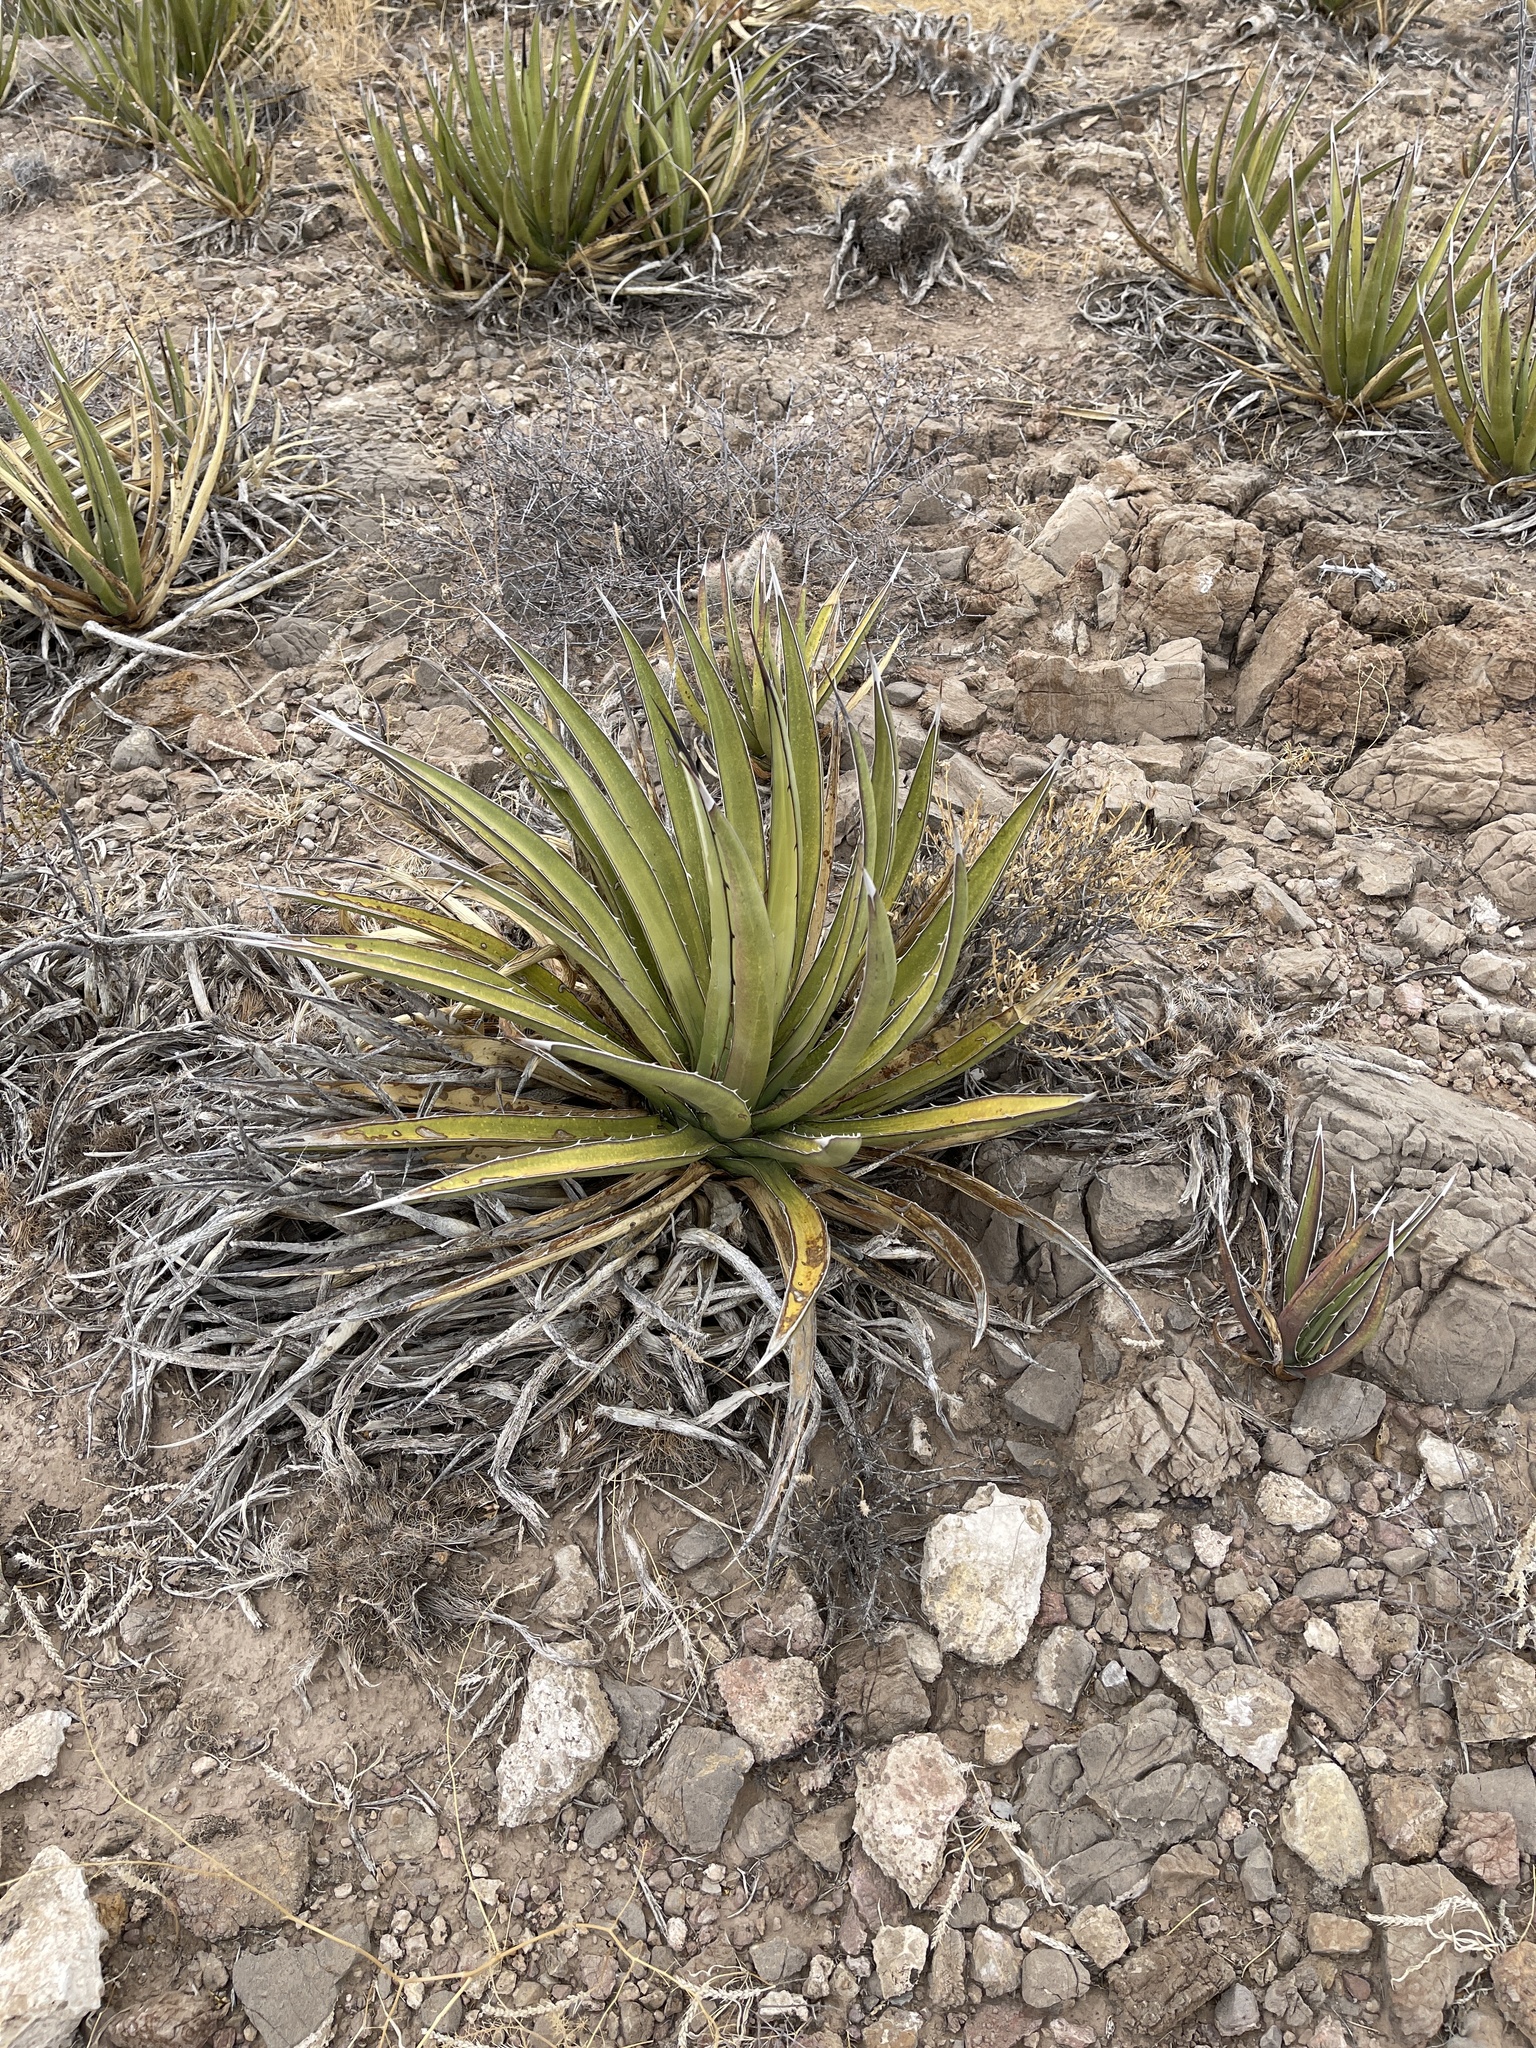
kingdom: Plantae
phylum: Tracheophyta
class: Liliopsida
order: Asparagales
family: Asparagaceae
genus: Agave
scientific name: Agave lechuguilla
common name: Lecheguilla agave
